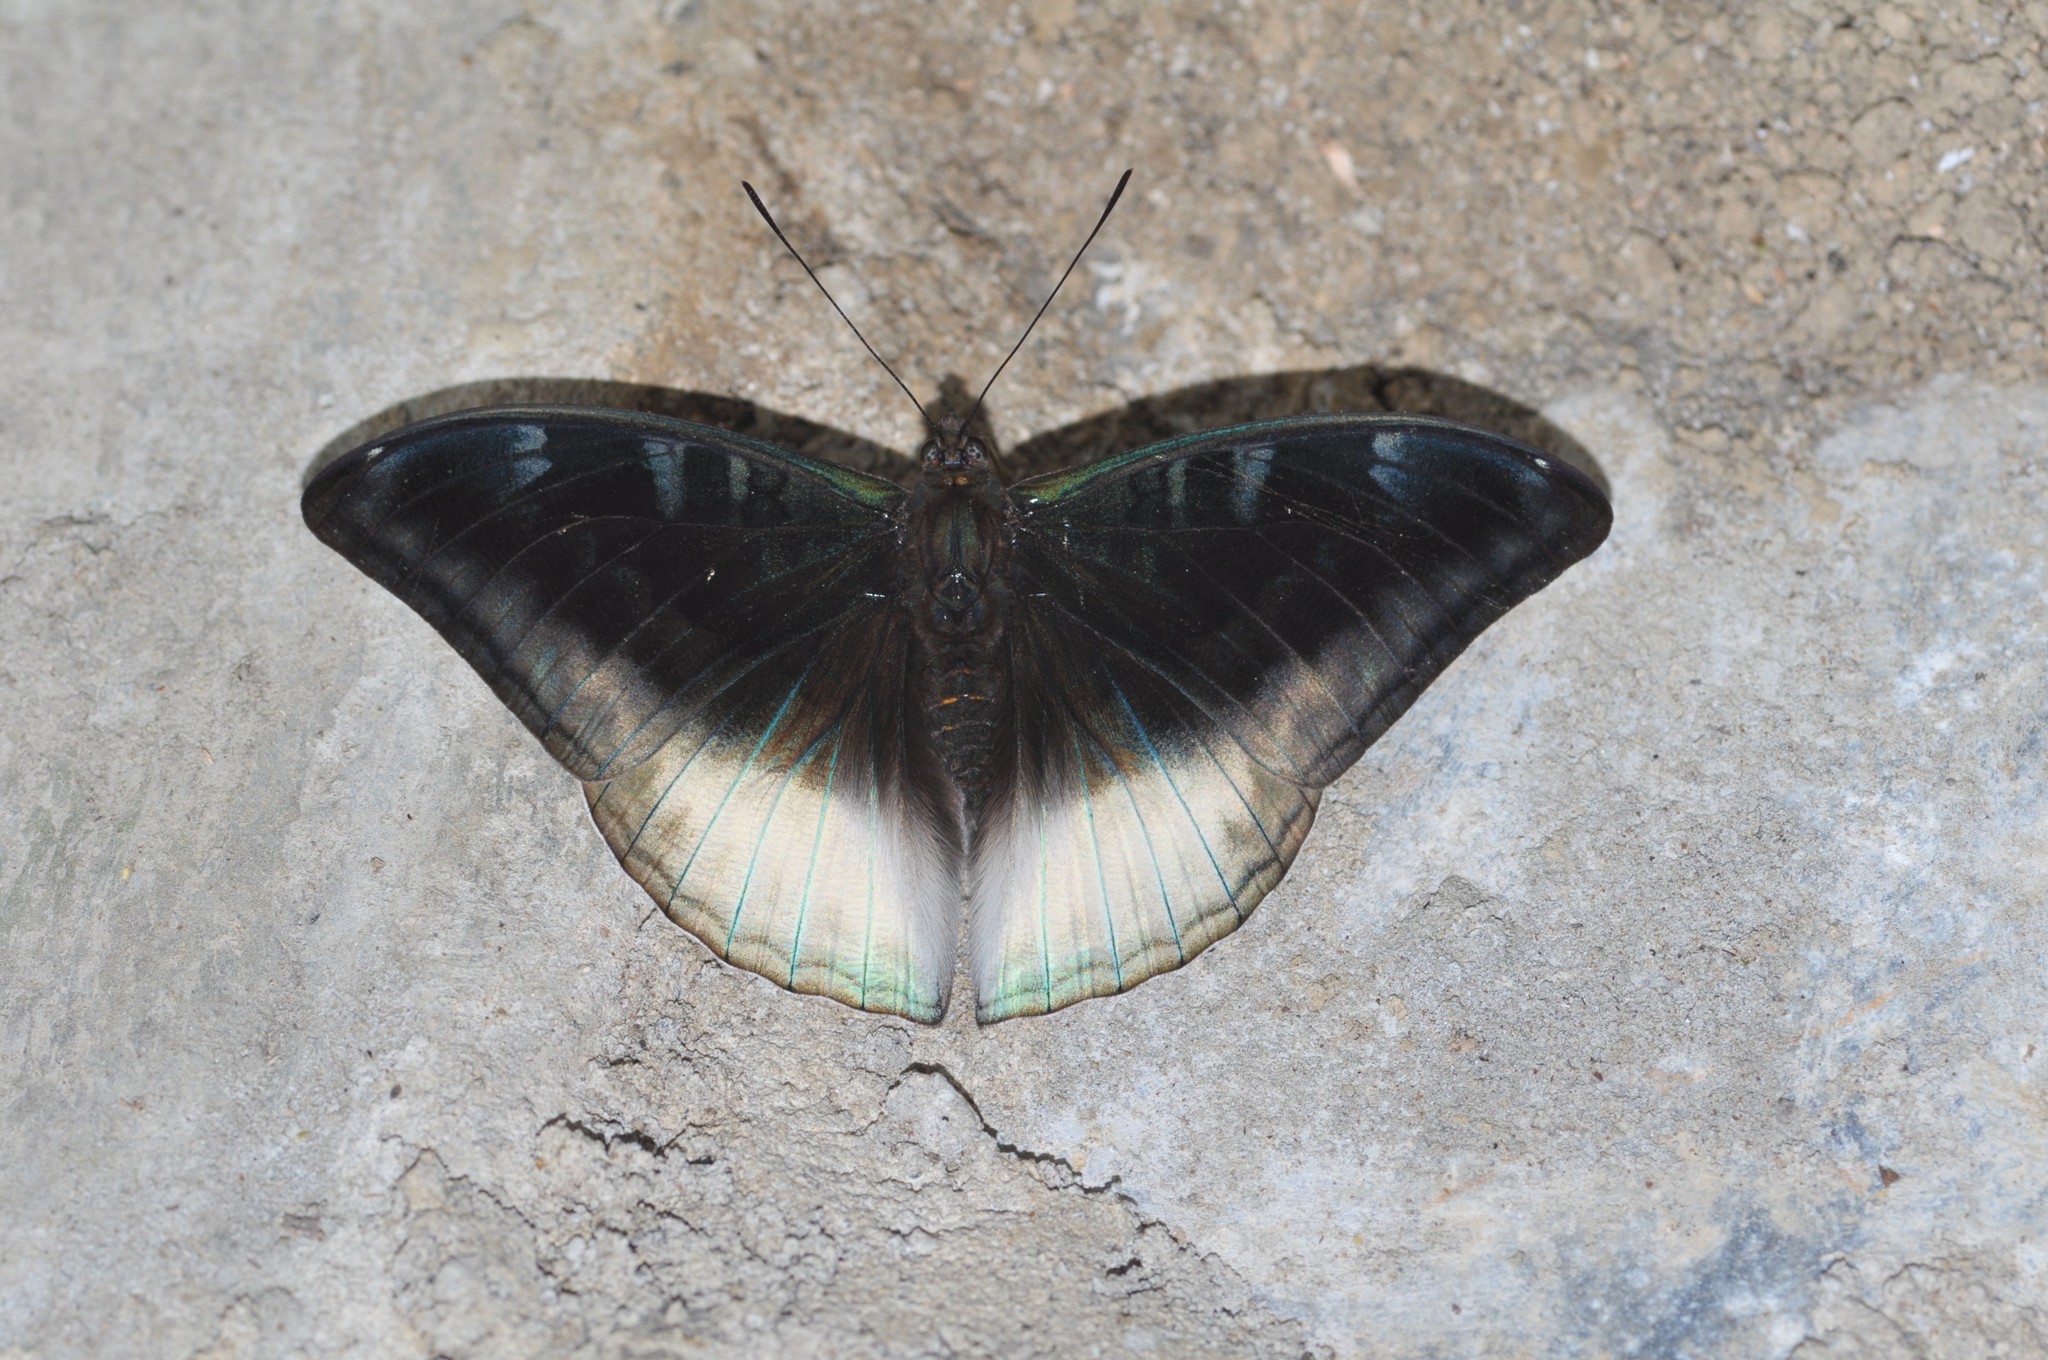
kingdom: Animalia
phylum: Arthropoda
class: Insecta
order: Lepidoptera
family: Nymphalidae
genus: Limenitis
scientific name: Limenitis Auzakia danava
